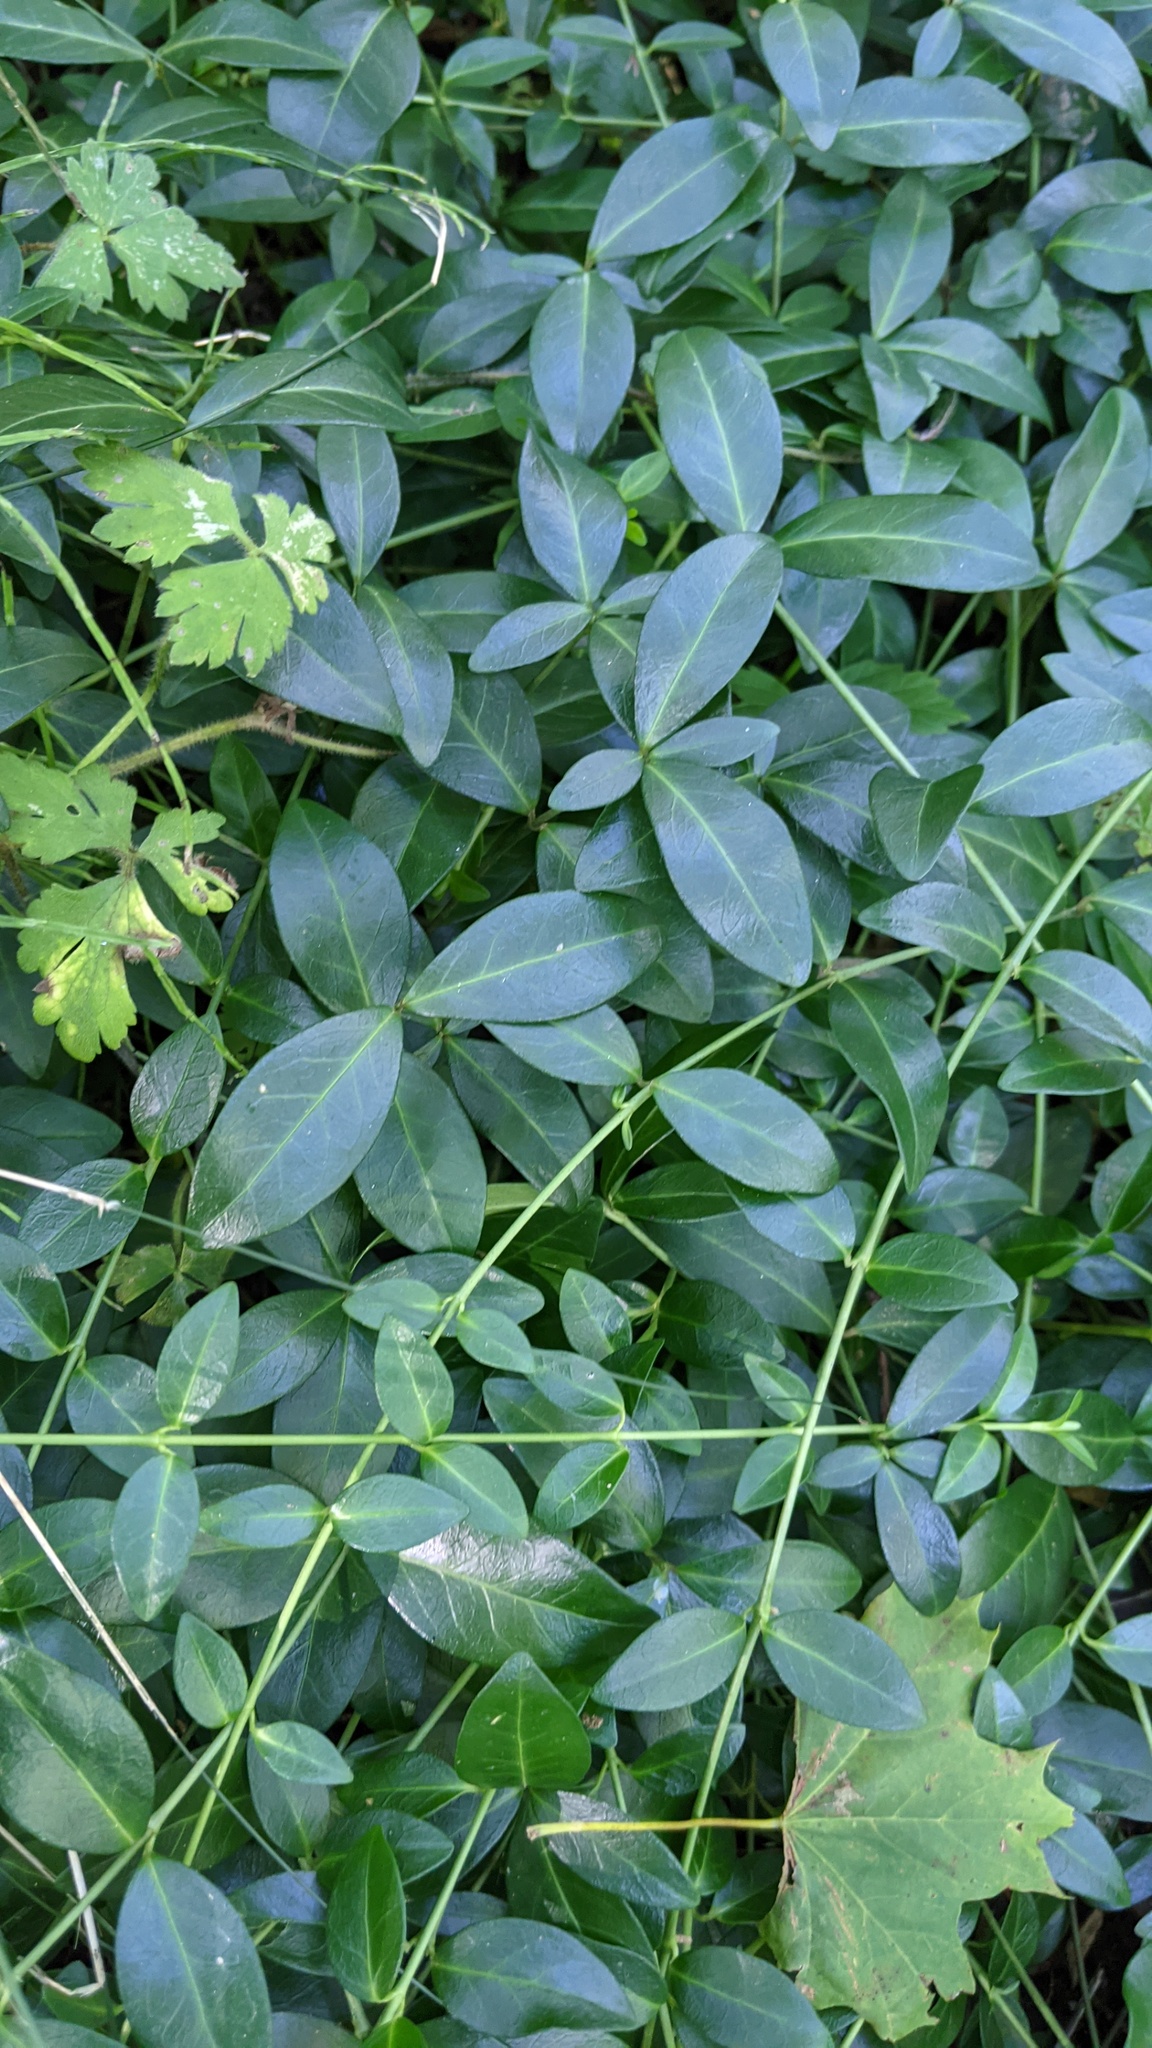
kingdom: Plantae
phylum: Tracheophyta
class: Magnoliopsida
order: Gentianales
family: Apocynaceae
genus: Vinca
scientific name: Vinca minor
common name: Lesser periwinkle
